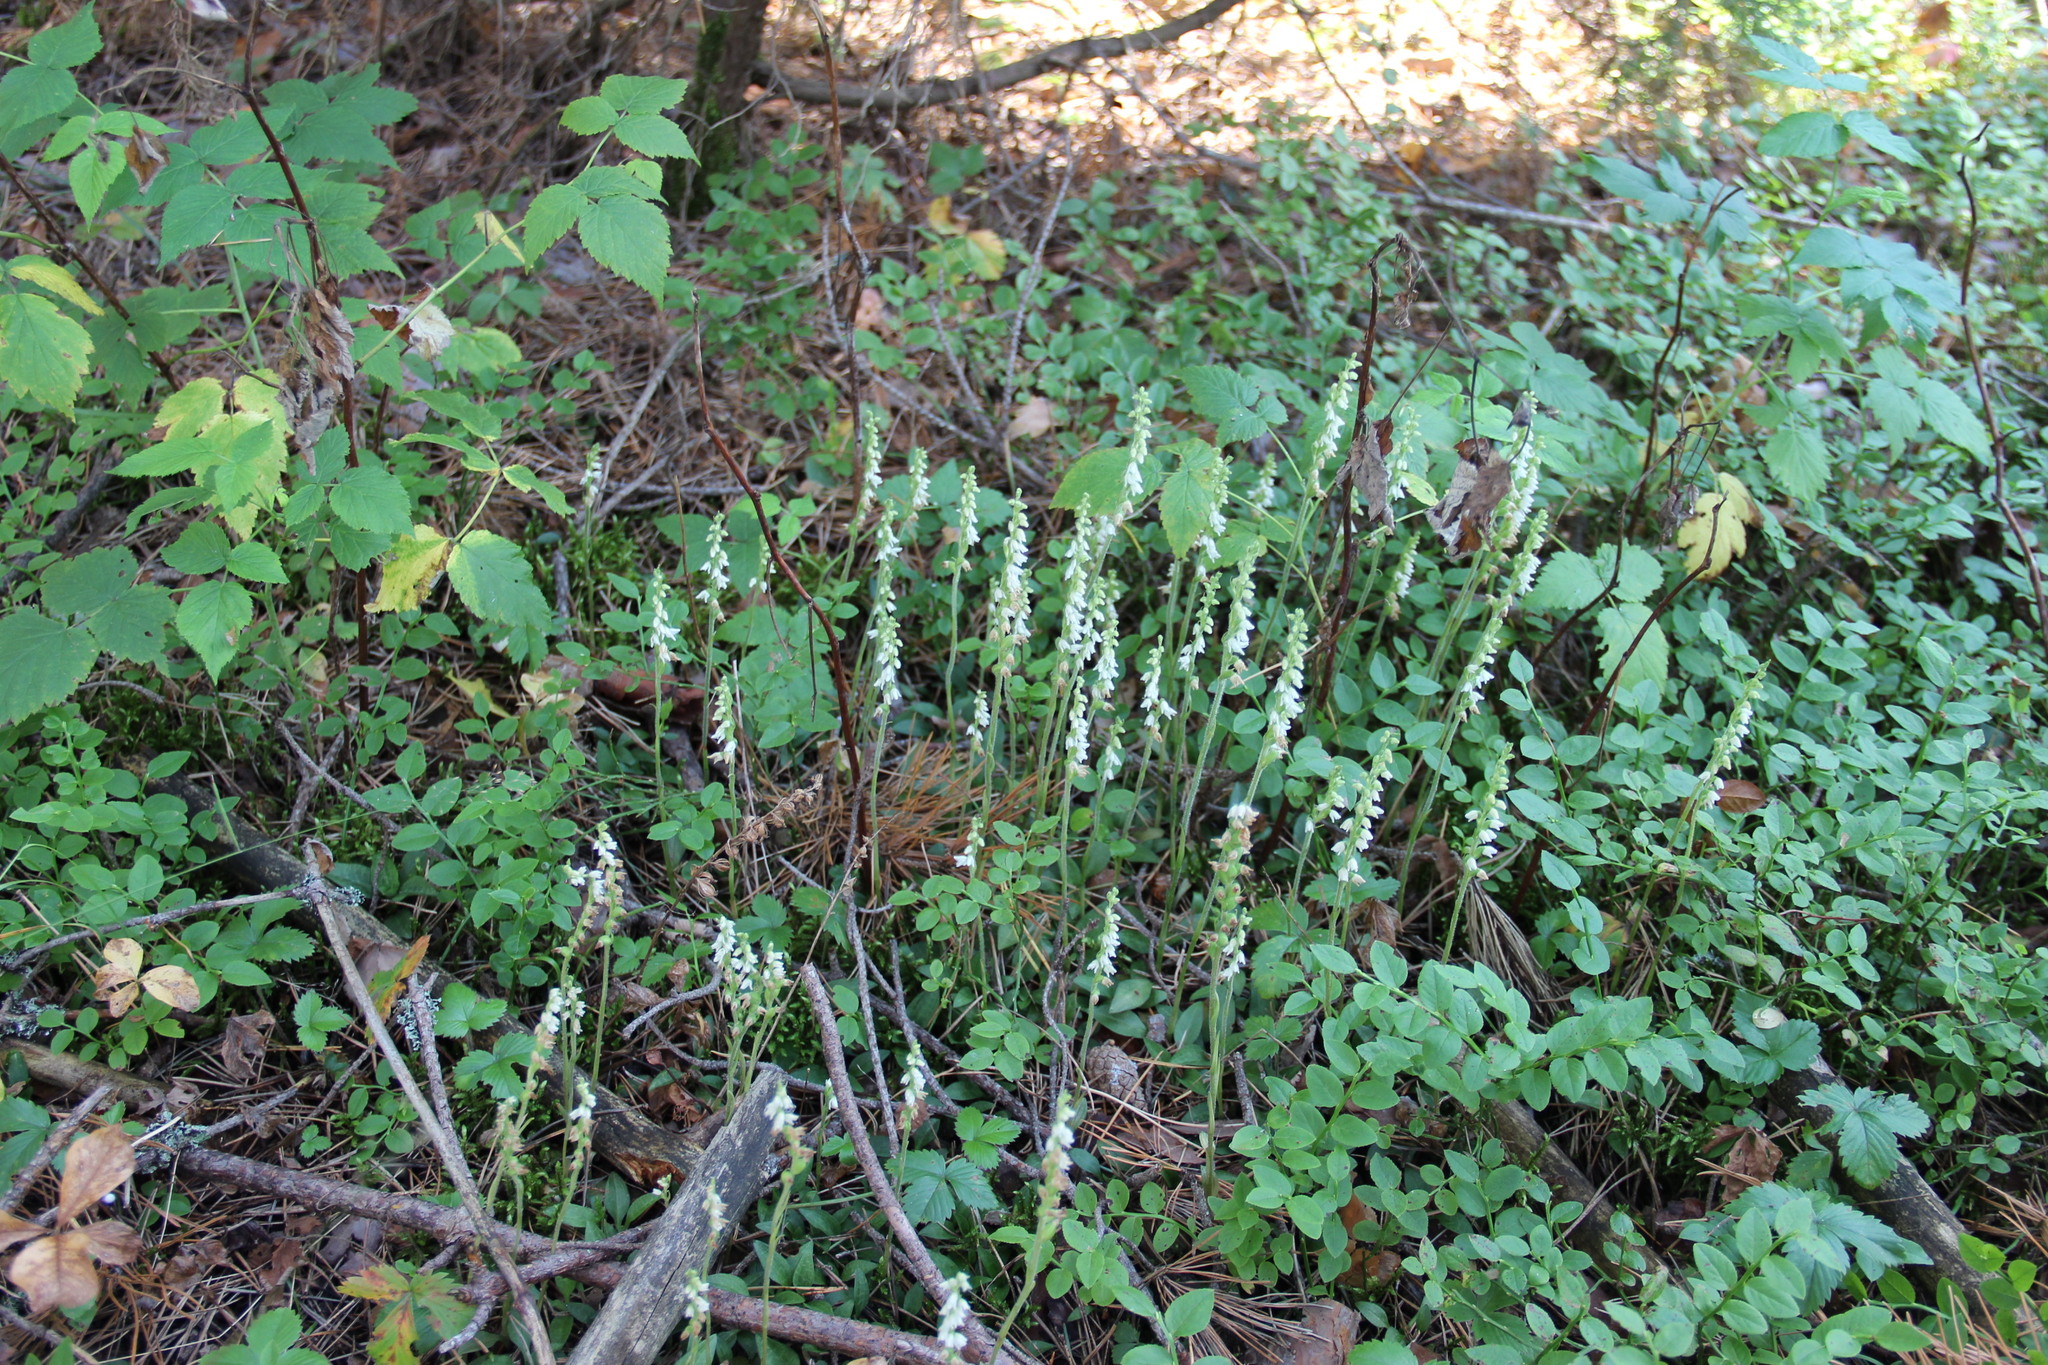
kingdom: Plantae
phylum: Tracheophyta
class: Liliopsida
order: Asparagales
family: Orchidaceae
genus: Goodyera
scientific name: Goodyera repens
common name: Creeping lady's-tresses
